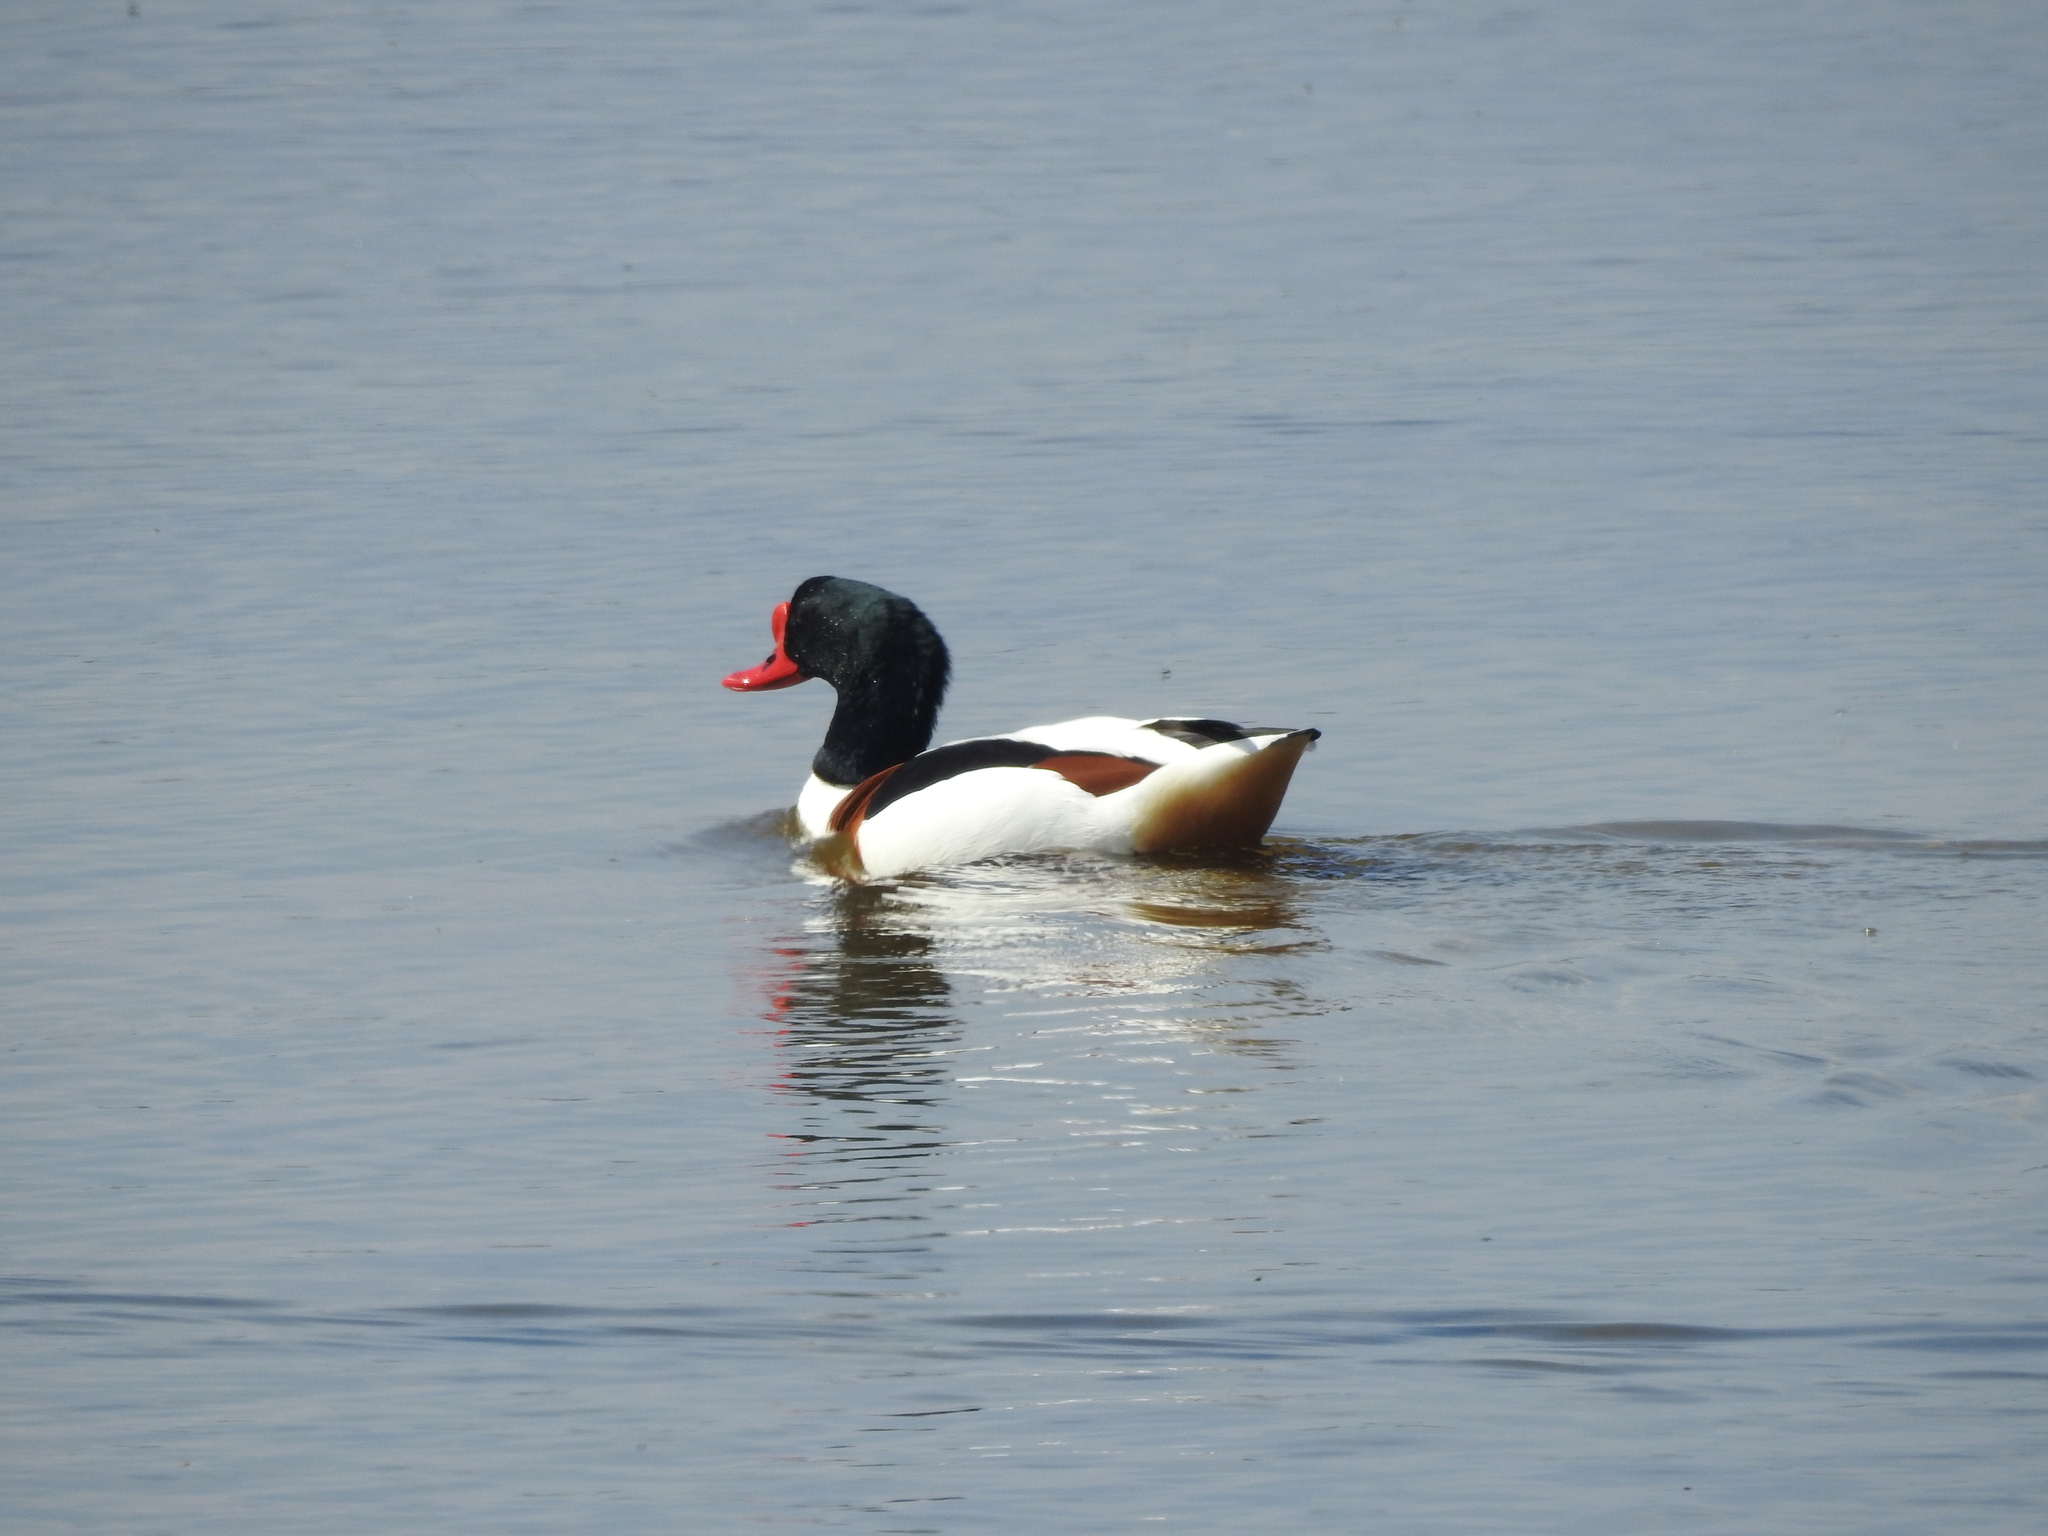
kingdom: Animalia
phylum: Chordata
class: Aves
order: Anseriformes
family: Anatidae
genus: Tadorna
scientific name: Tadorna tadorna
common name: Common shelduck
